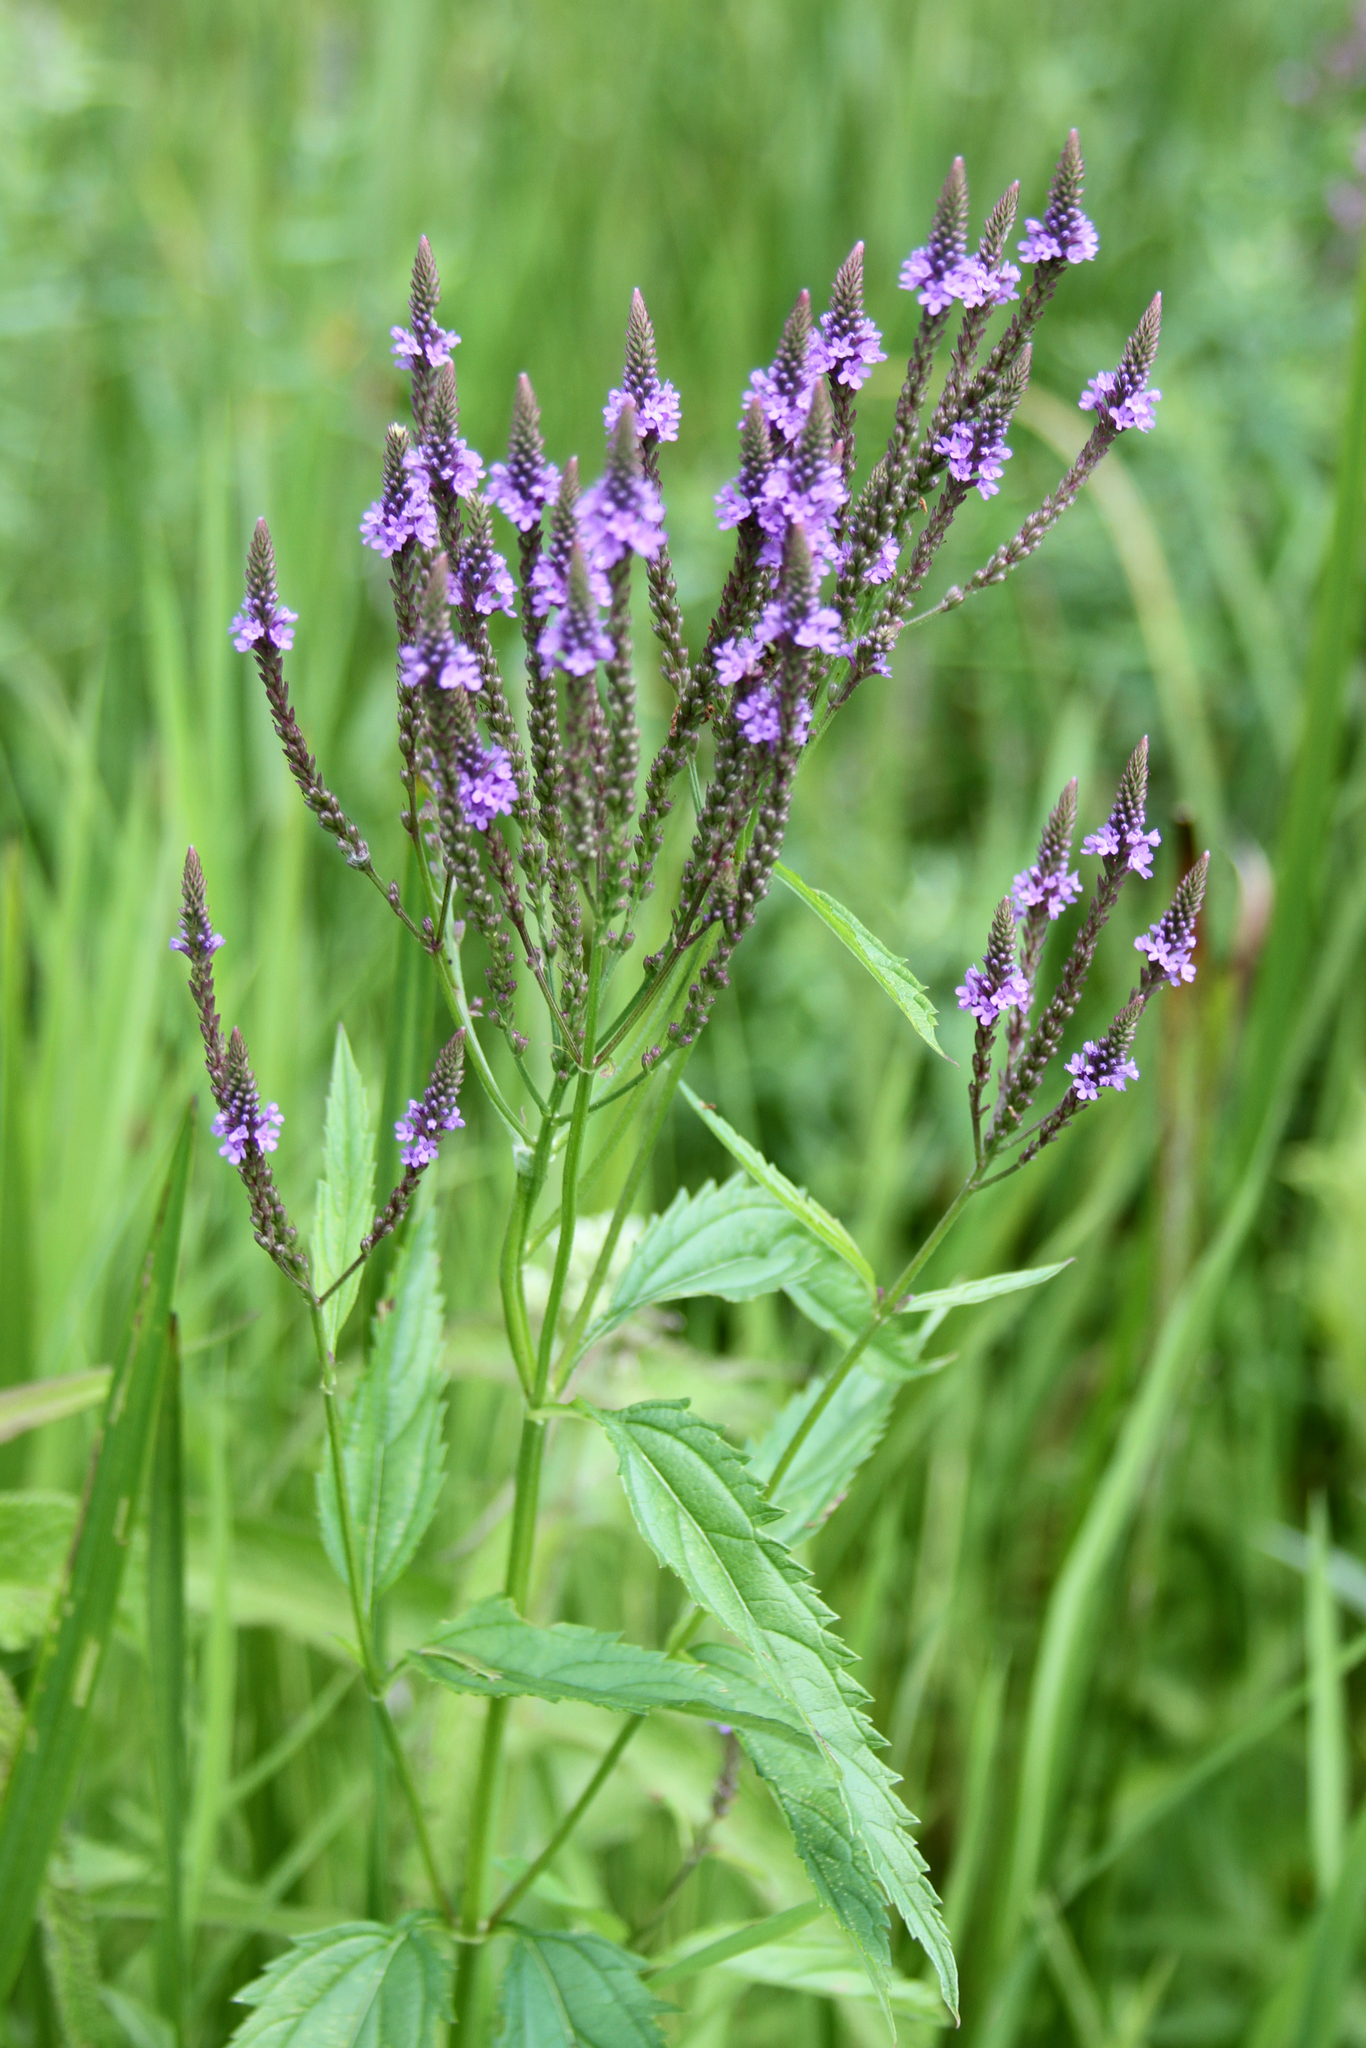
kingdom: Plantae
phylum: Tracheophyta
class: Magnoliopsida
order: Lamiales
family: Verbenaceae
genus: Verbena
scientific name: Verbena hastata
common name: American blue vervain
